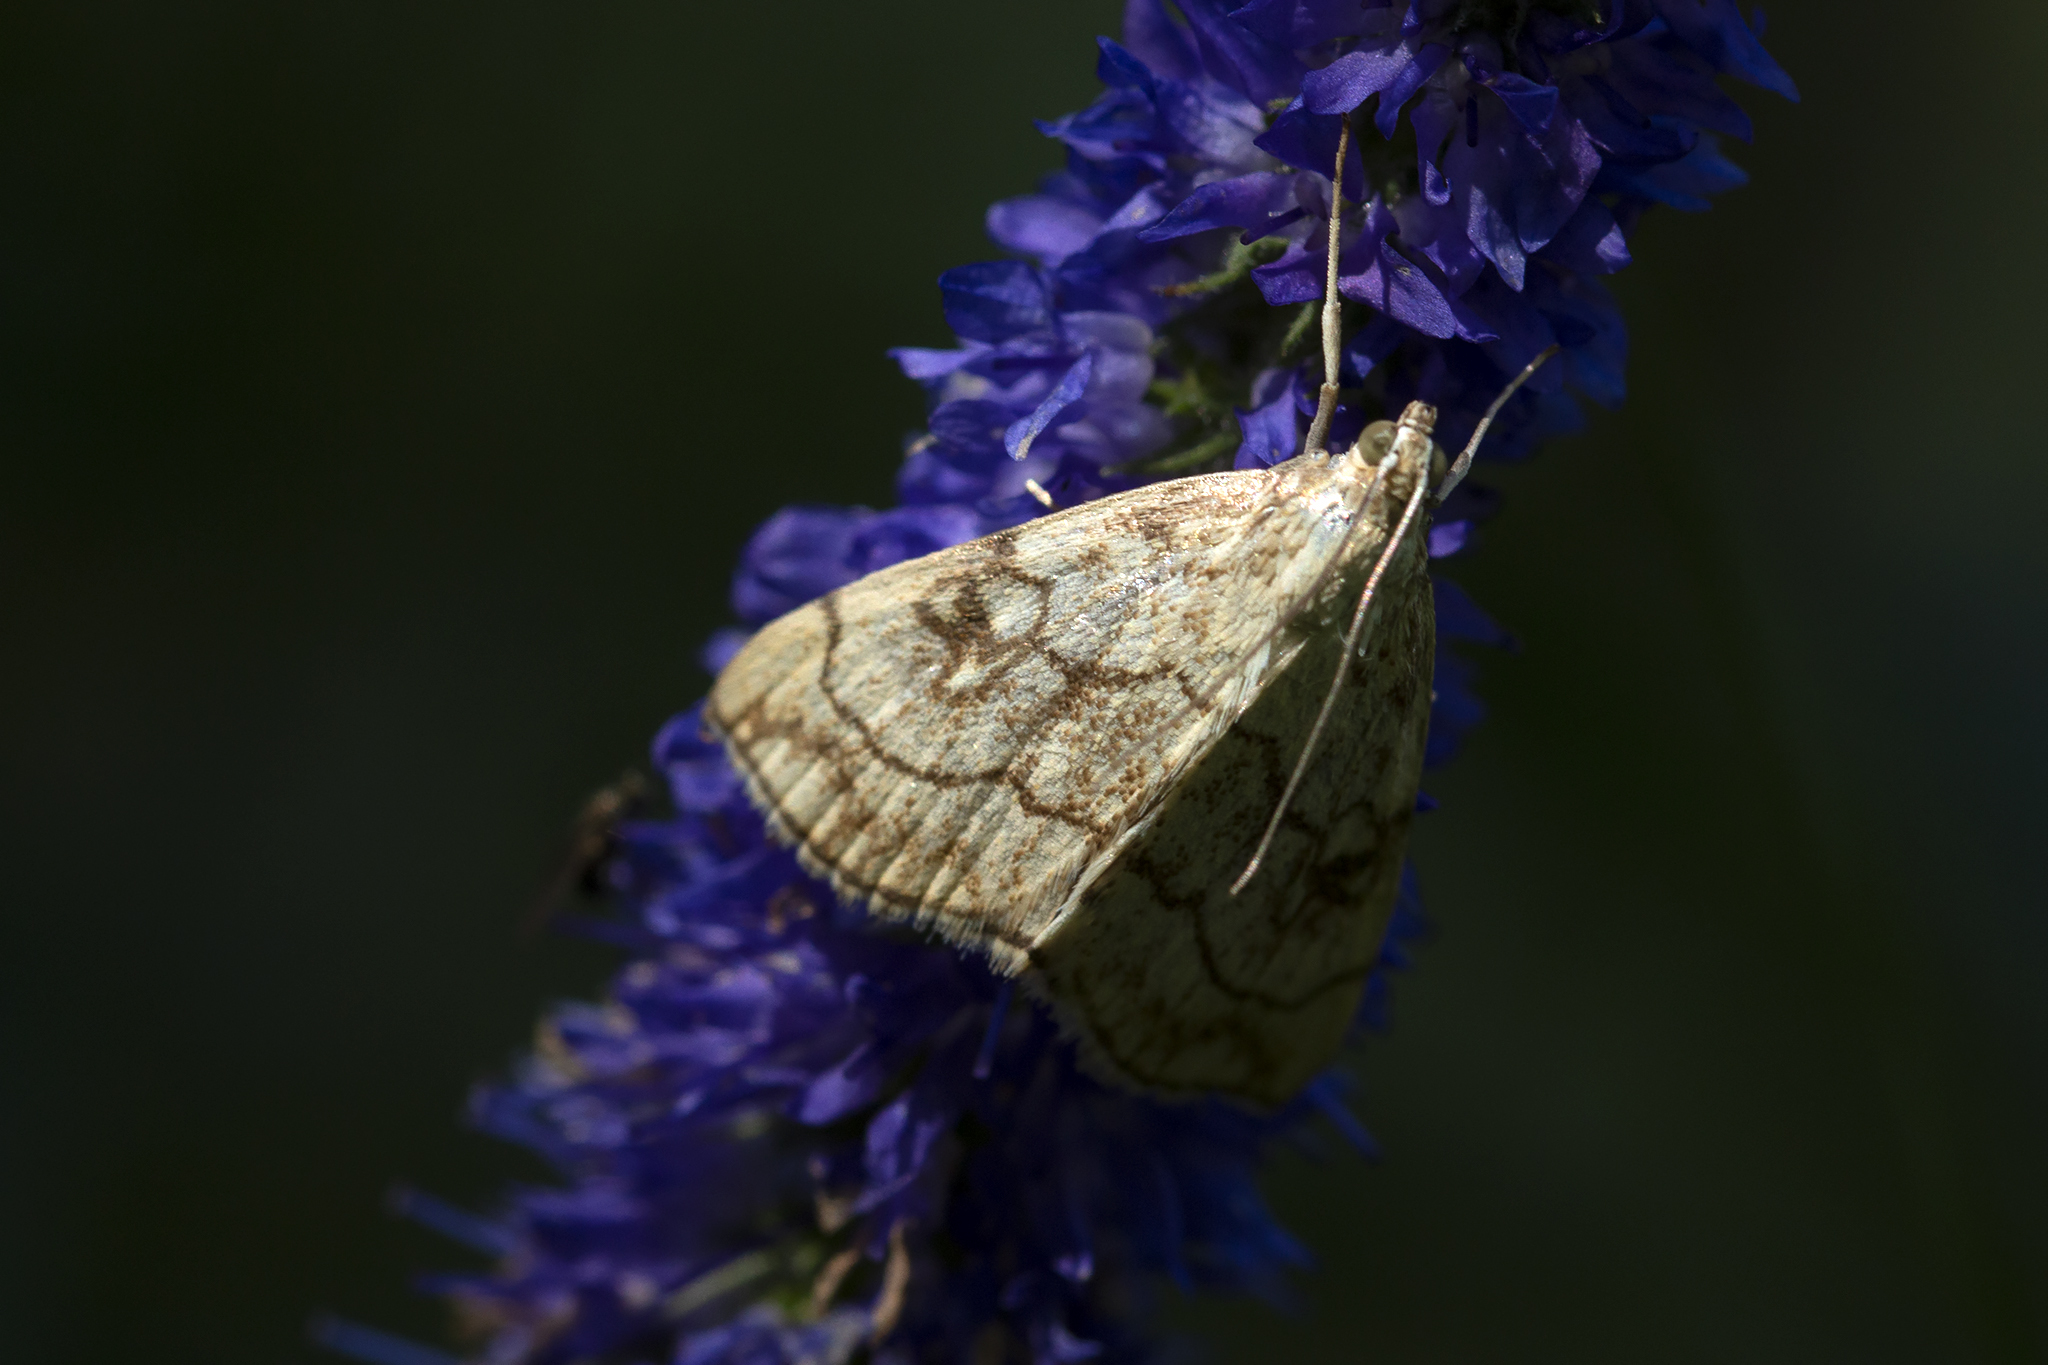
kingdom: Animalia
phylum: Arthropoda
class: Insecta
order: Lepidoptera
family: Crambidae
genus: Evergestis
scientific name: Evergestis pallidata
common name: Chequered pearl
